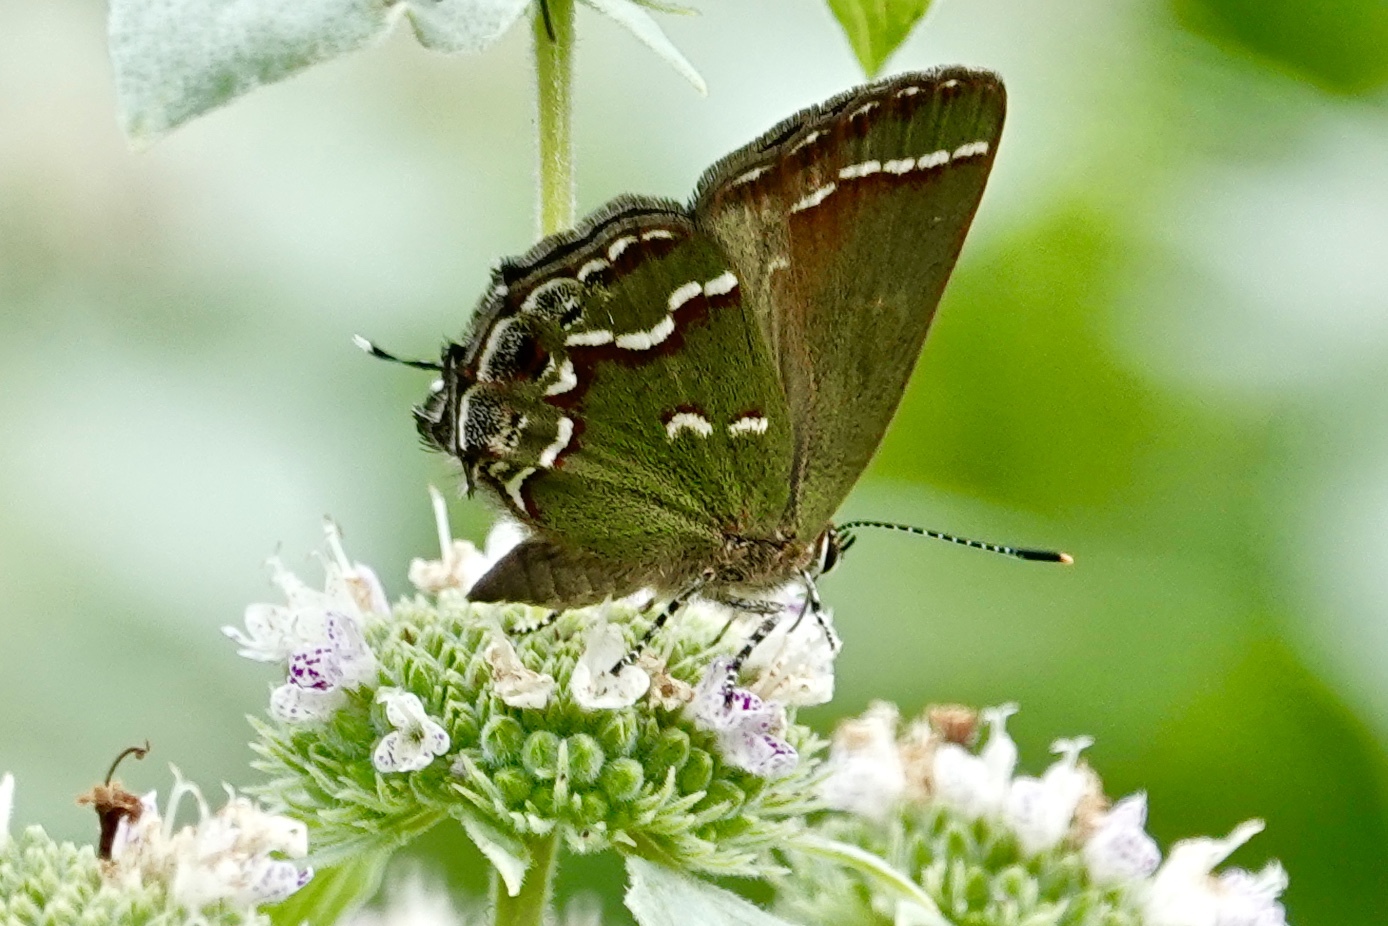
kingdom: Animalia
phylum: Arthropoda
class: Insecta
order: Lepidoptera
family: Lycaenidae
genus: Mitoura
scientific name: Mitoura gryneus
